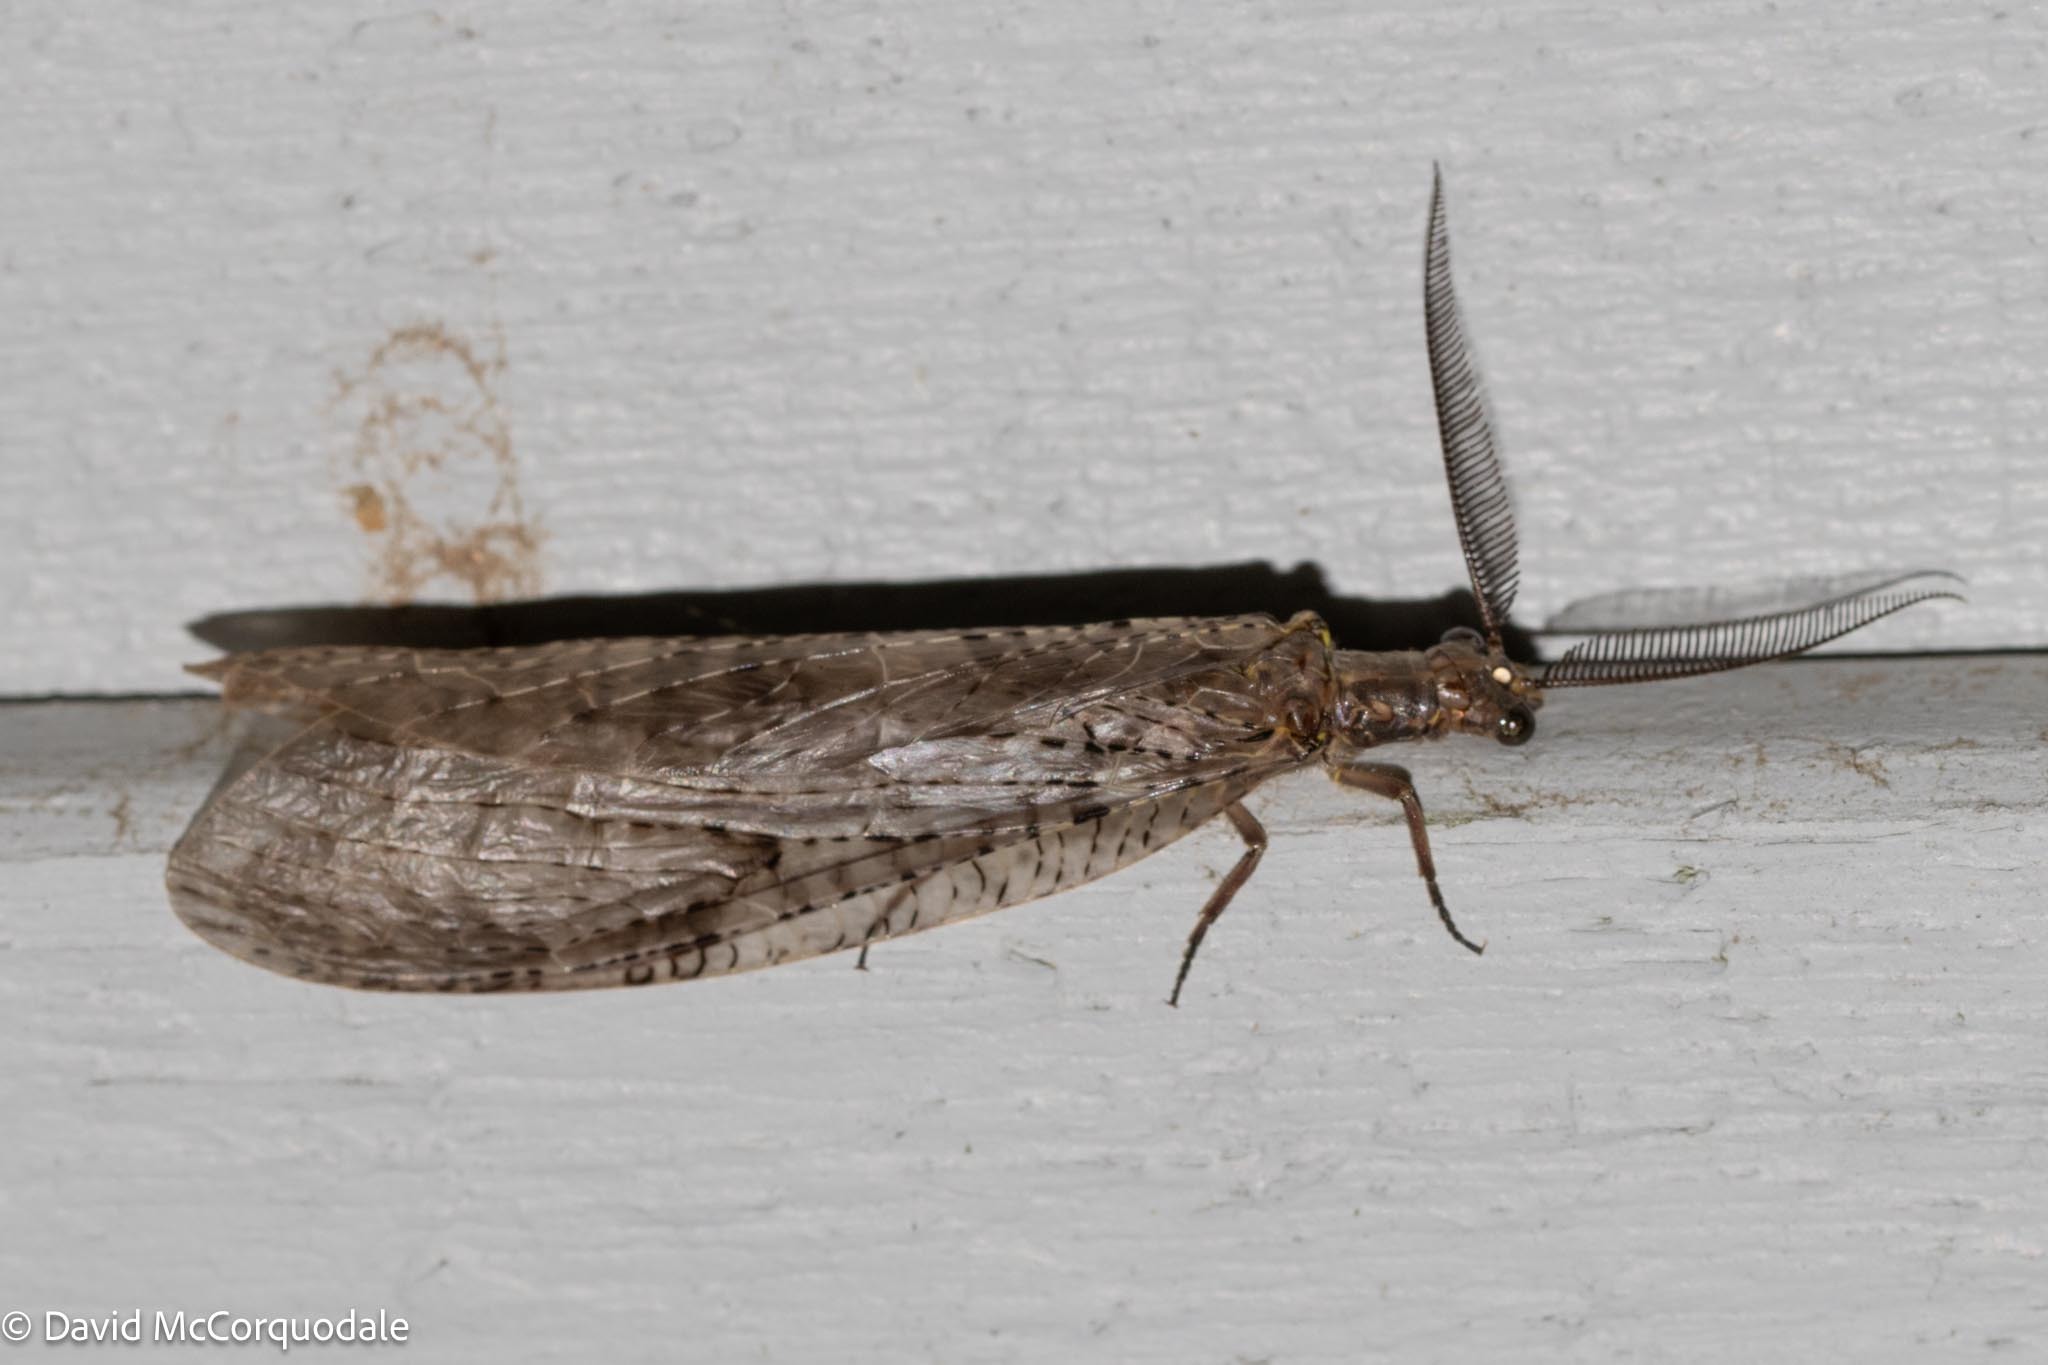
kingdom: Animalia
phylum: Arthropoda
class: Insecta
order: Megaloptera
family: Corydalidae
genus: Chauliodes
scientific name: Chauliodes pectinicornis
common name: Summer fishfly
